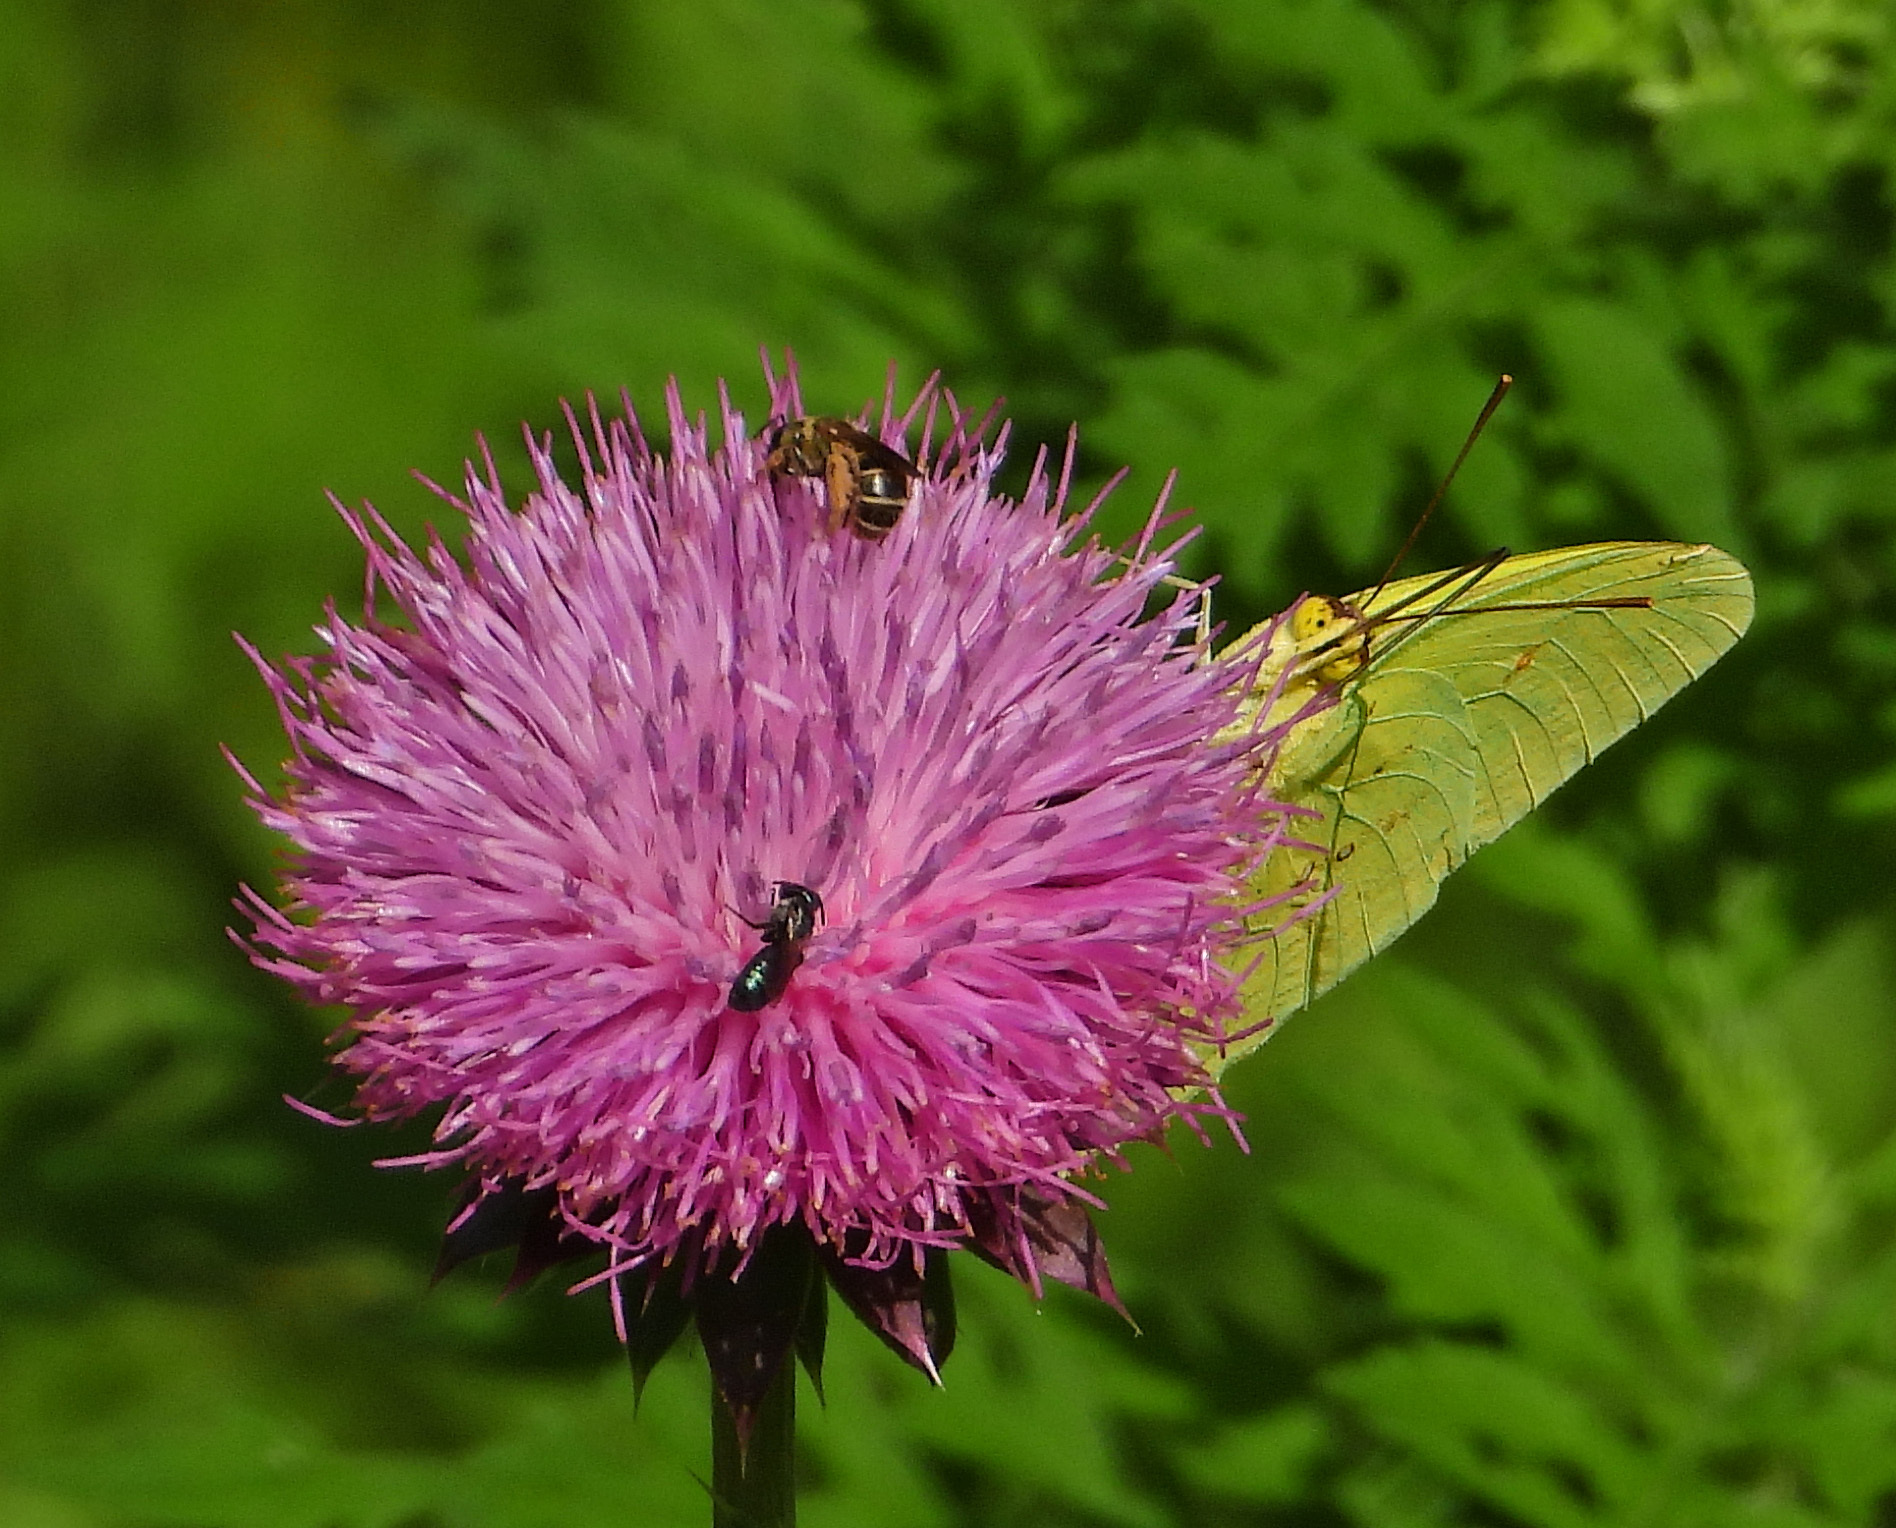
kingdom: Animalia
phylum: Arthropoda
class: Insecta
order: Lepidoptera
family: Pieridae
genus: Phoebis
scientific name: Phoebis sennae
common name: Cloudless sulphur
